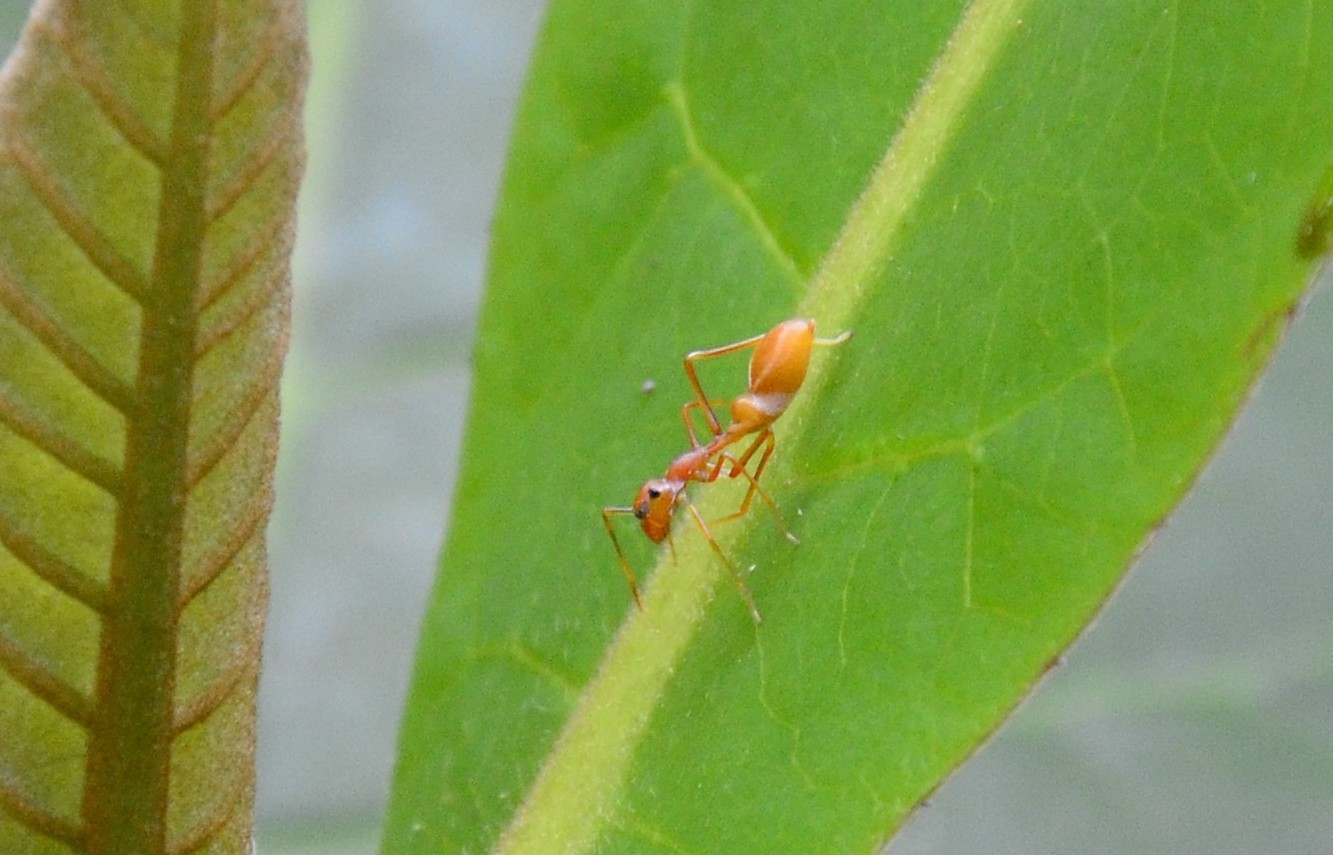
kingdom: Animalia
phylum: Arthropoda
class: Arachnida
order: Araneae
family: Salticidae
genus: Myrmaplata
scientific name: Myrmaplata plataleoides
